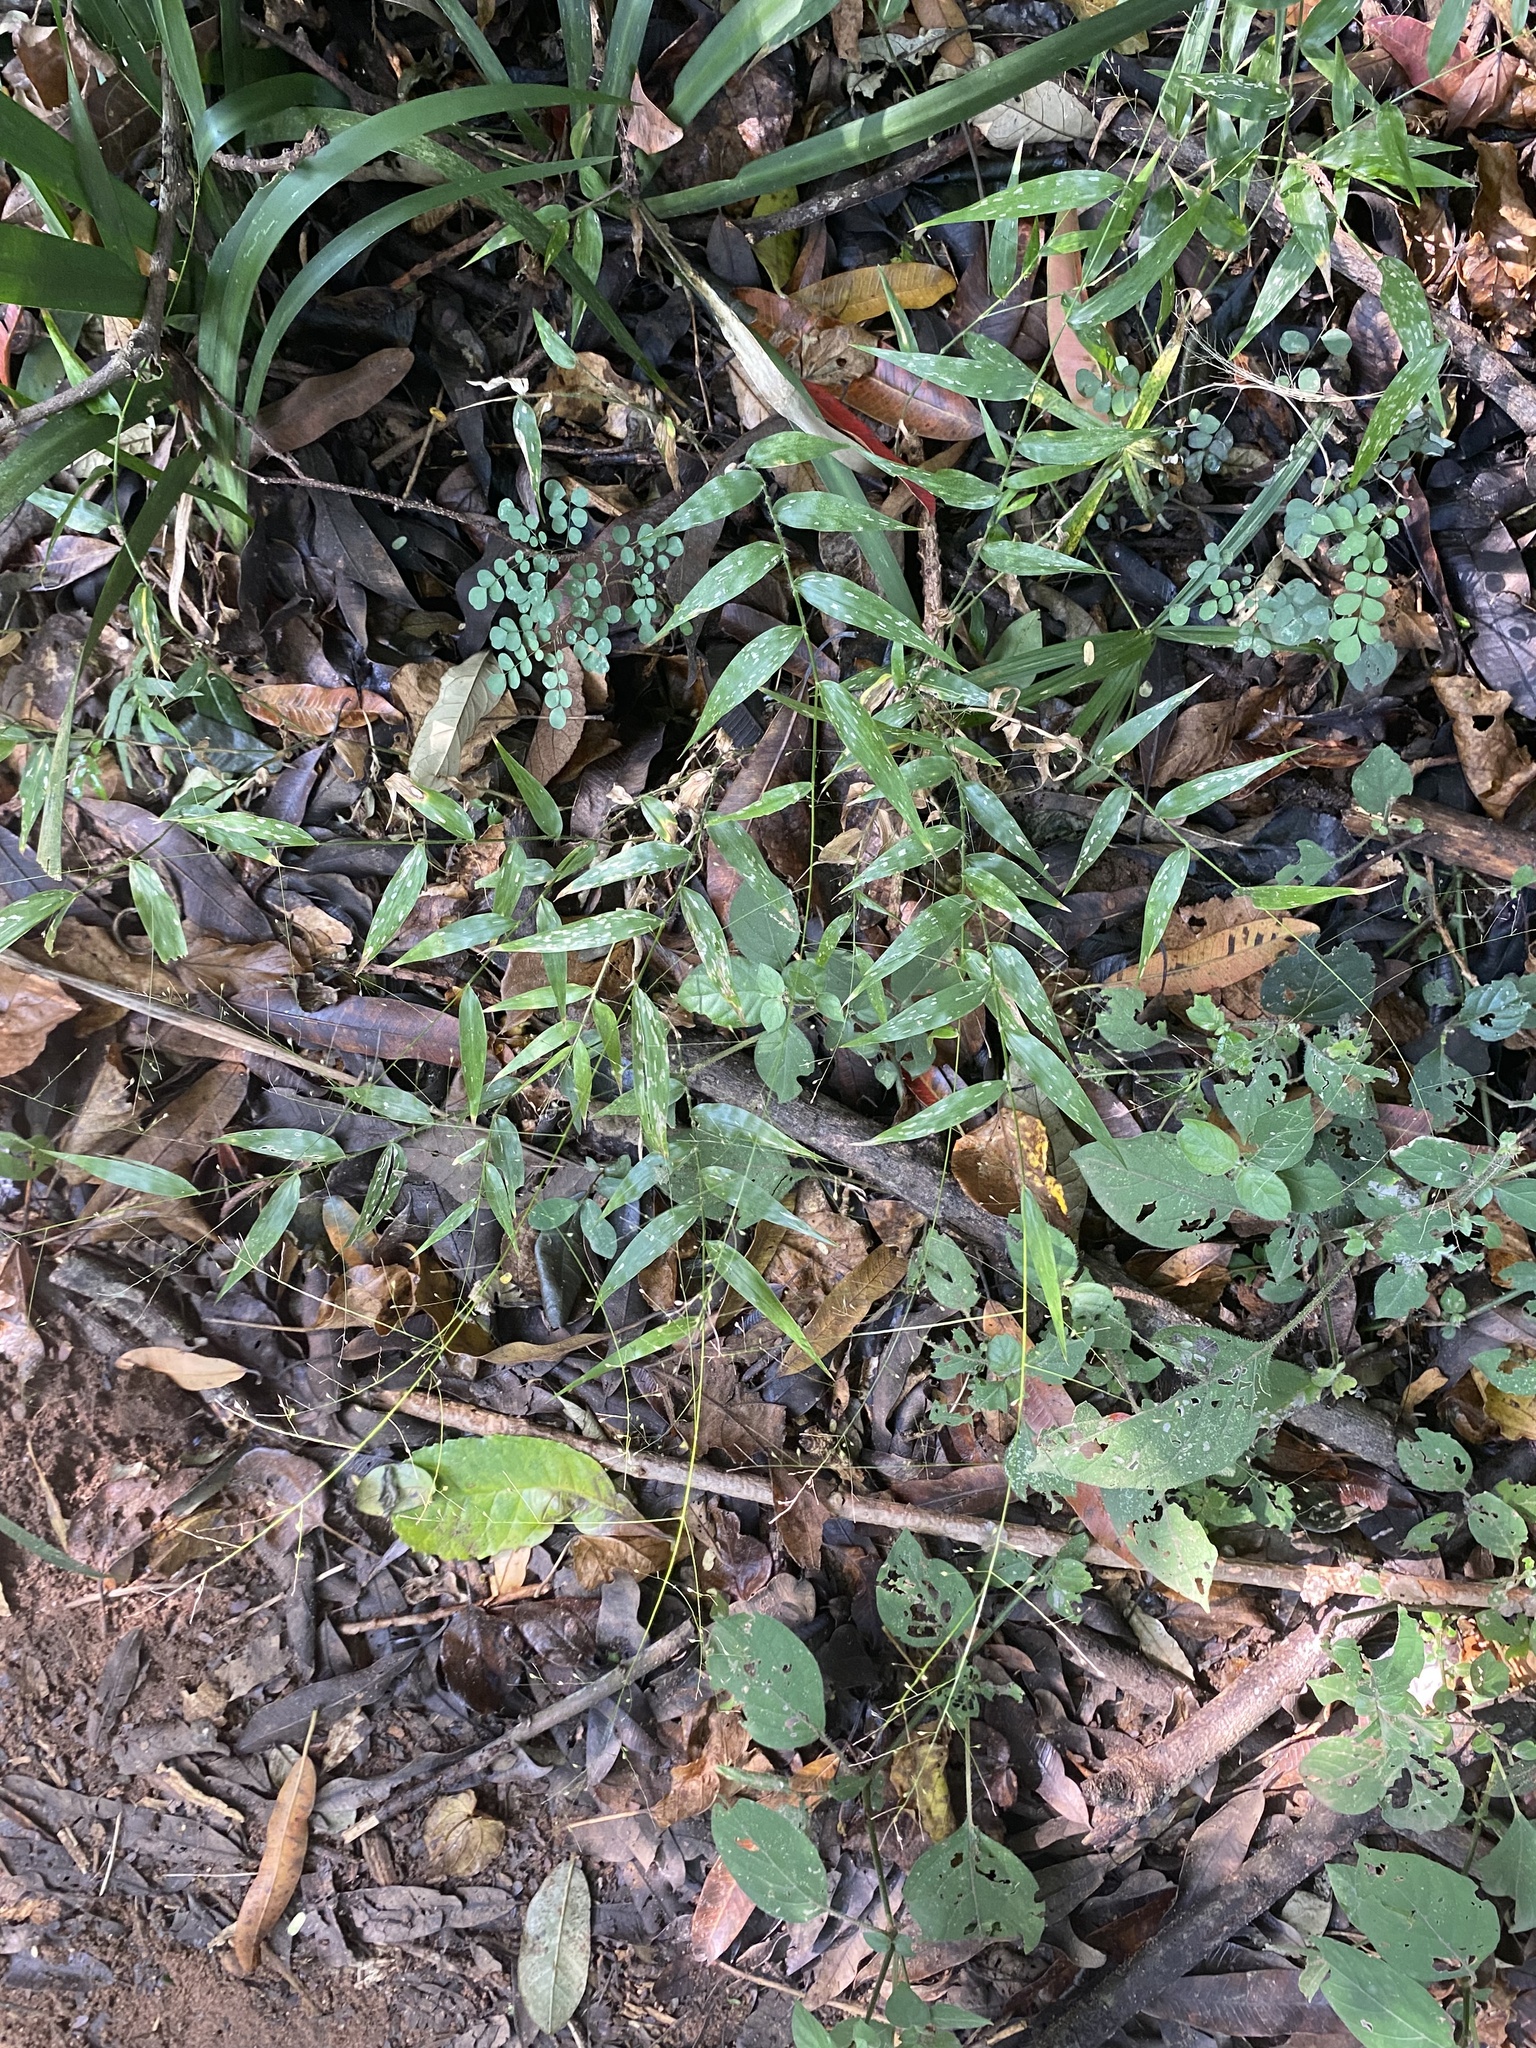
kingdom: Plantae
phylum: Tracheophyta
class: Liliopsida
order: Poales
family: Poaceae
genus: Oplismenus
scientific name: Oplismenus hirtellus
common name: Basketgrass
